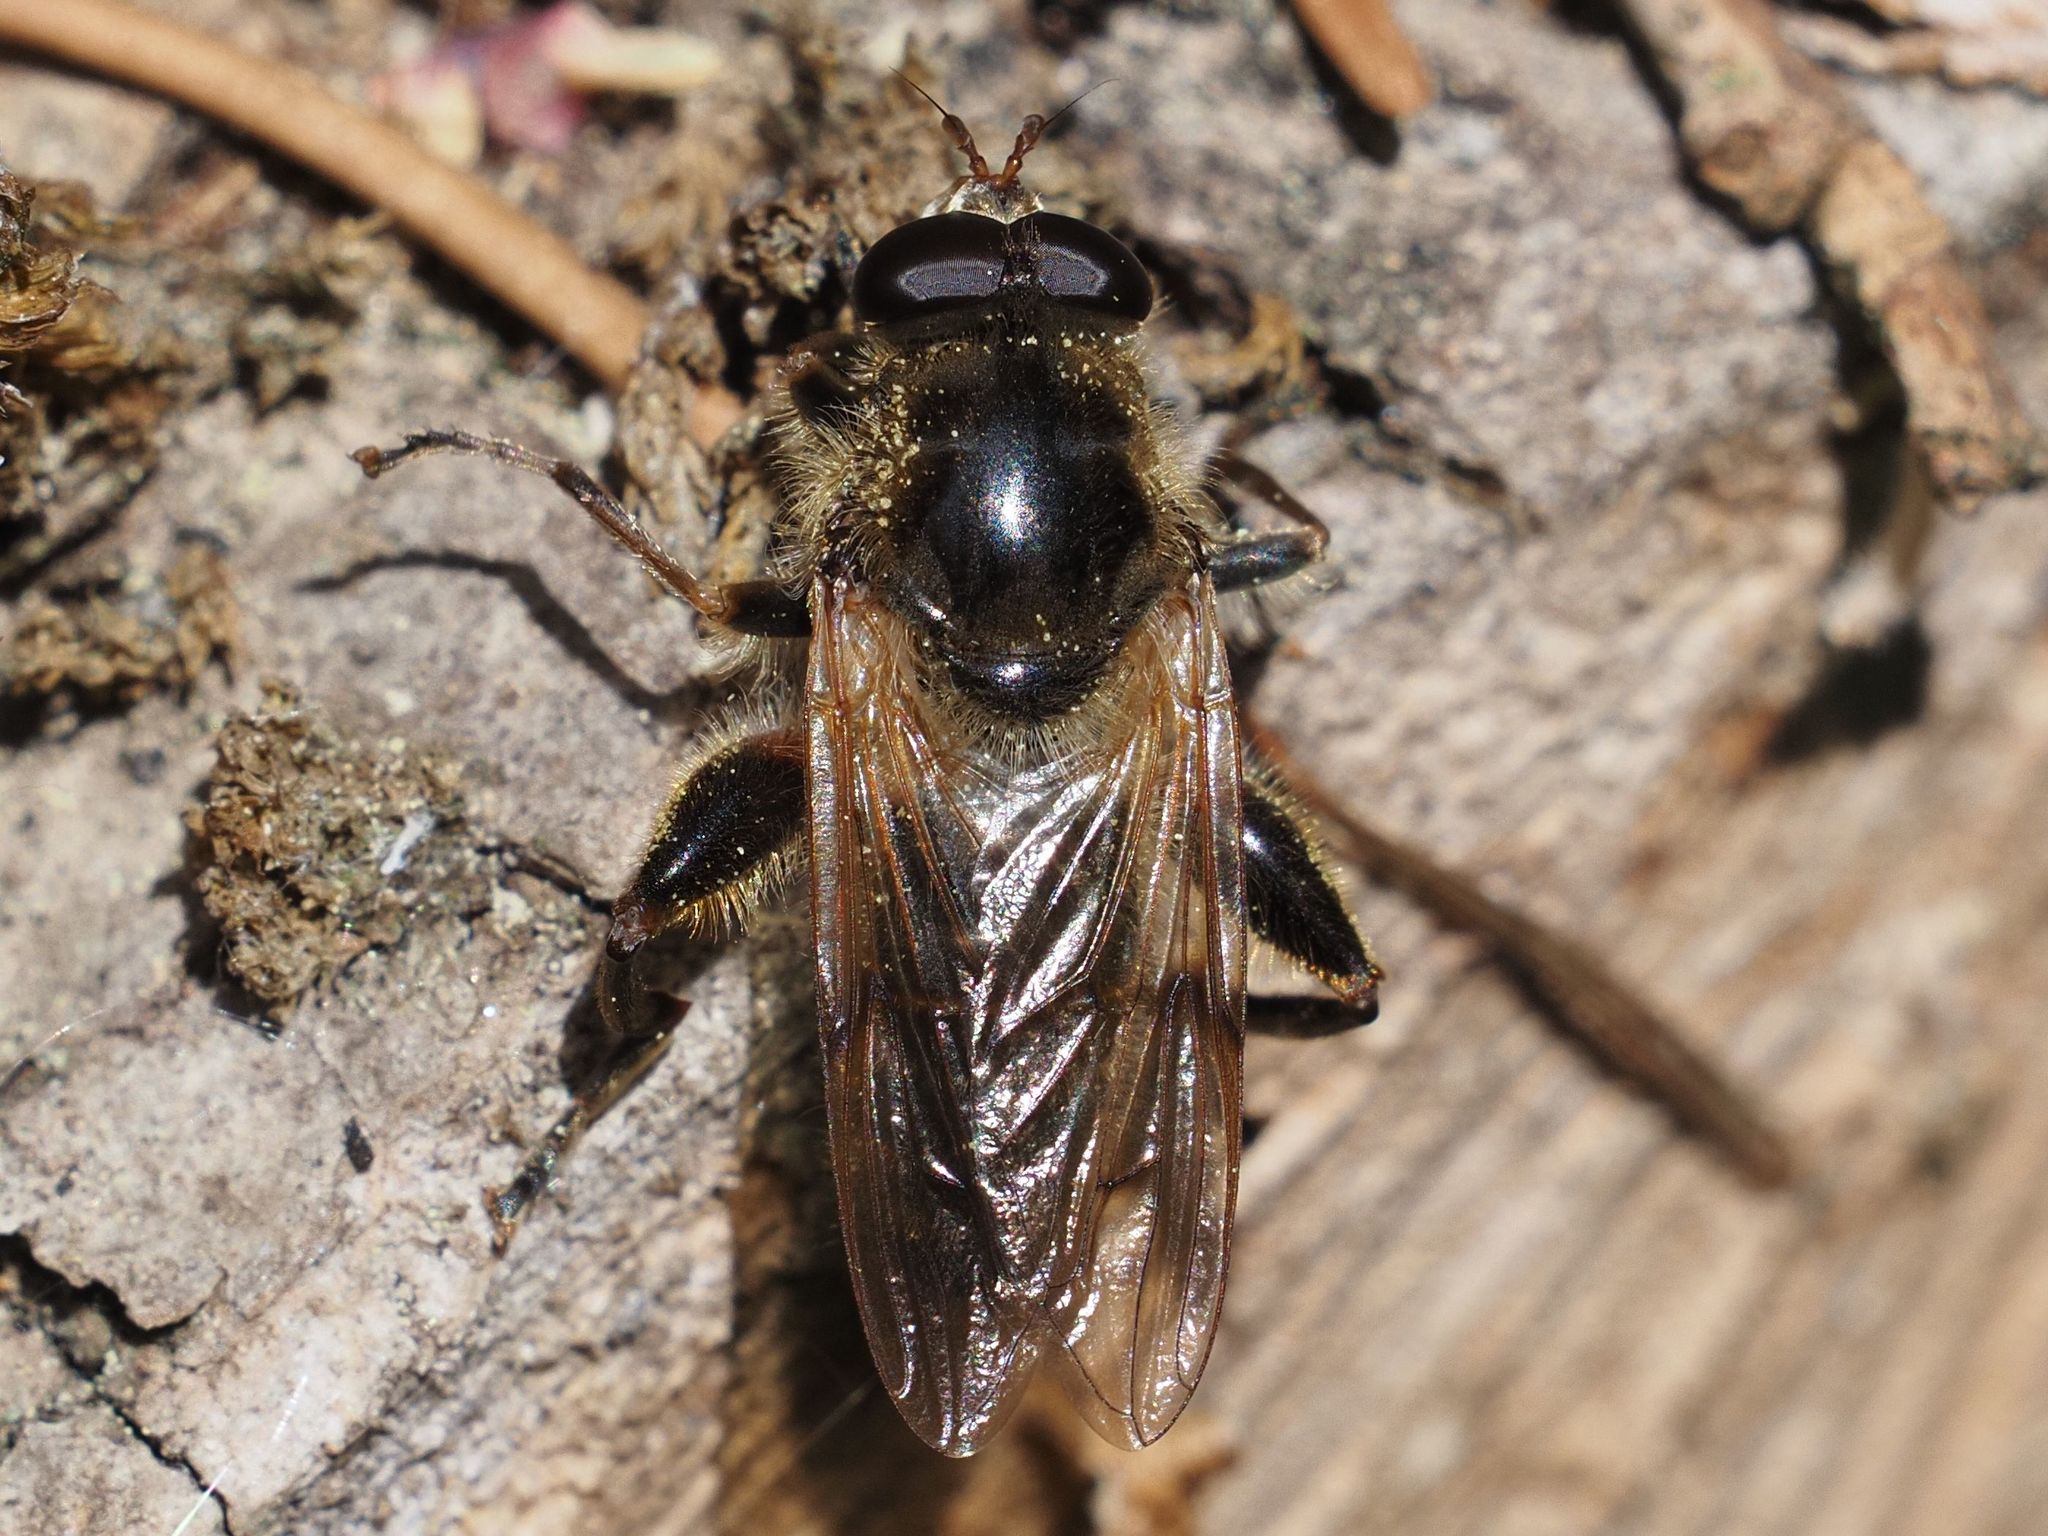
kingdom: Animalia
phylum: Arthropoda
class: Insecta
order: Diptera
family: Syrphidae
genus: Brachypalpus
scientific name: Brachypalpus valgus
